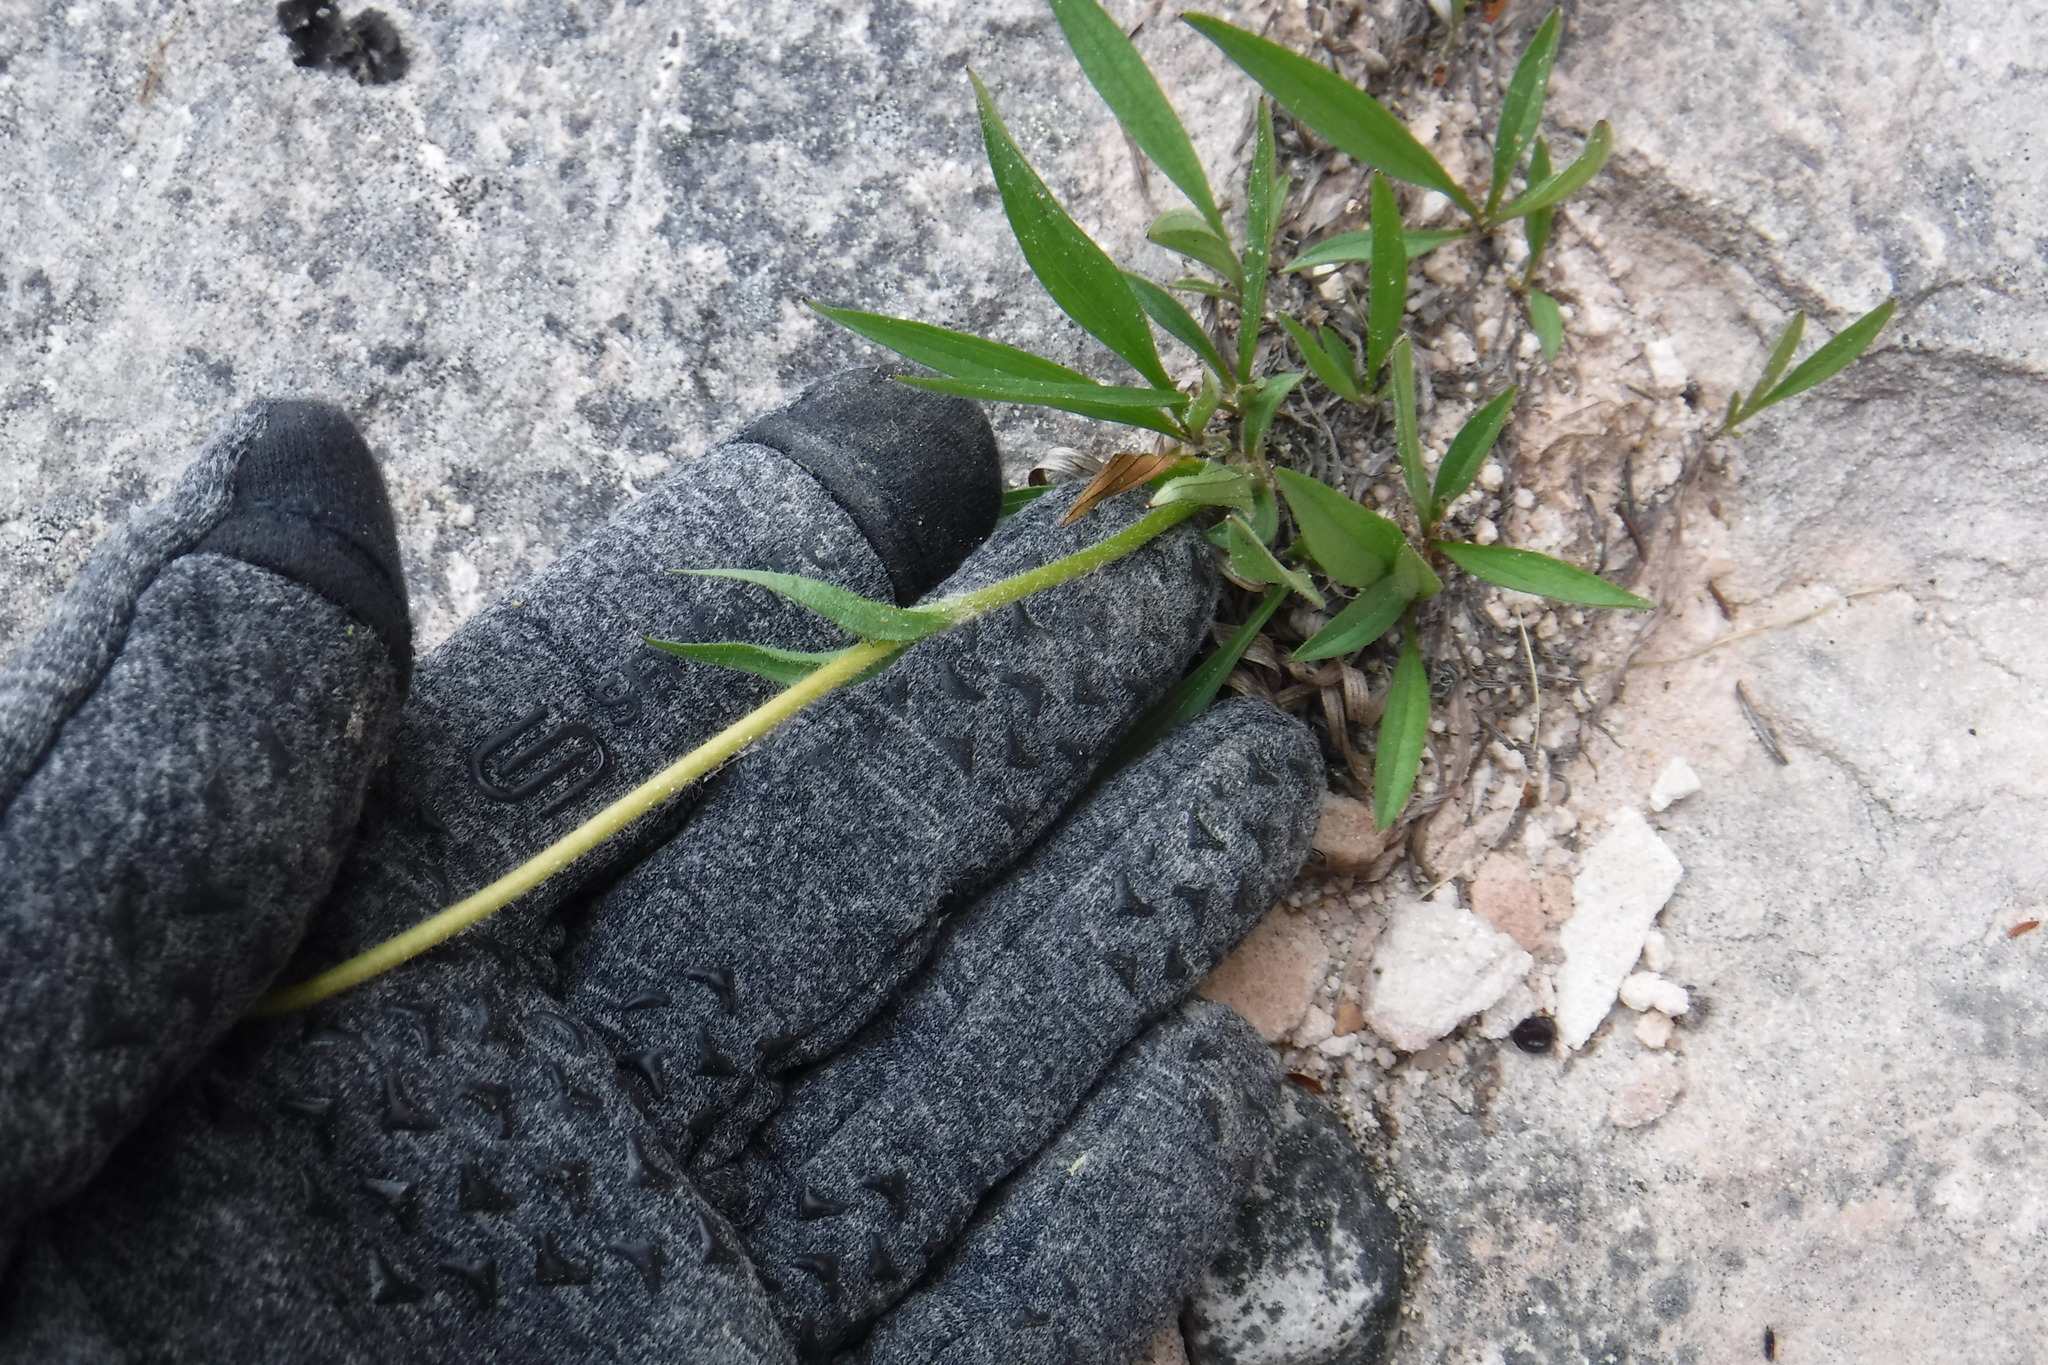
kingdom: Plantae
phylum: Tracheophyta
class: Magnoliopsida
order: Asterales
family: Asteraceae
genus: Arnica
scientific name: Arnica angustifolia
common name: Arctic arnica
